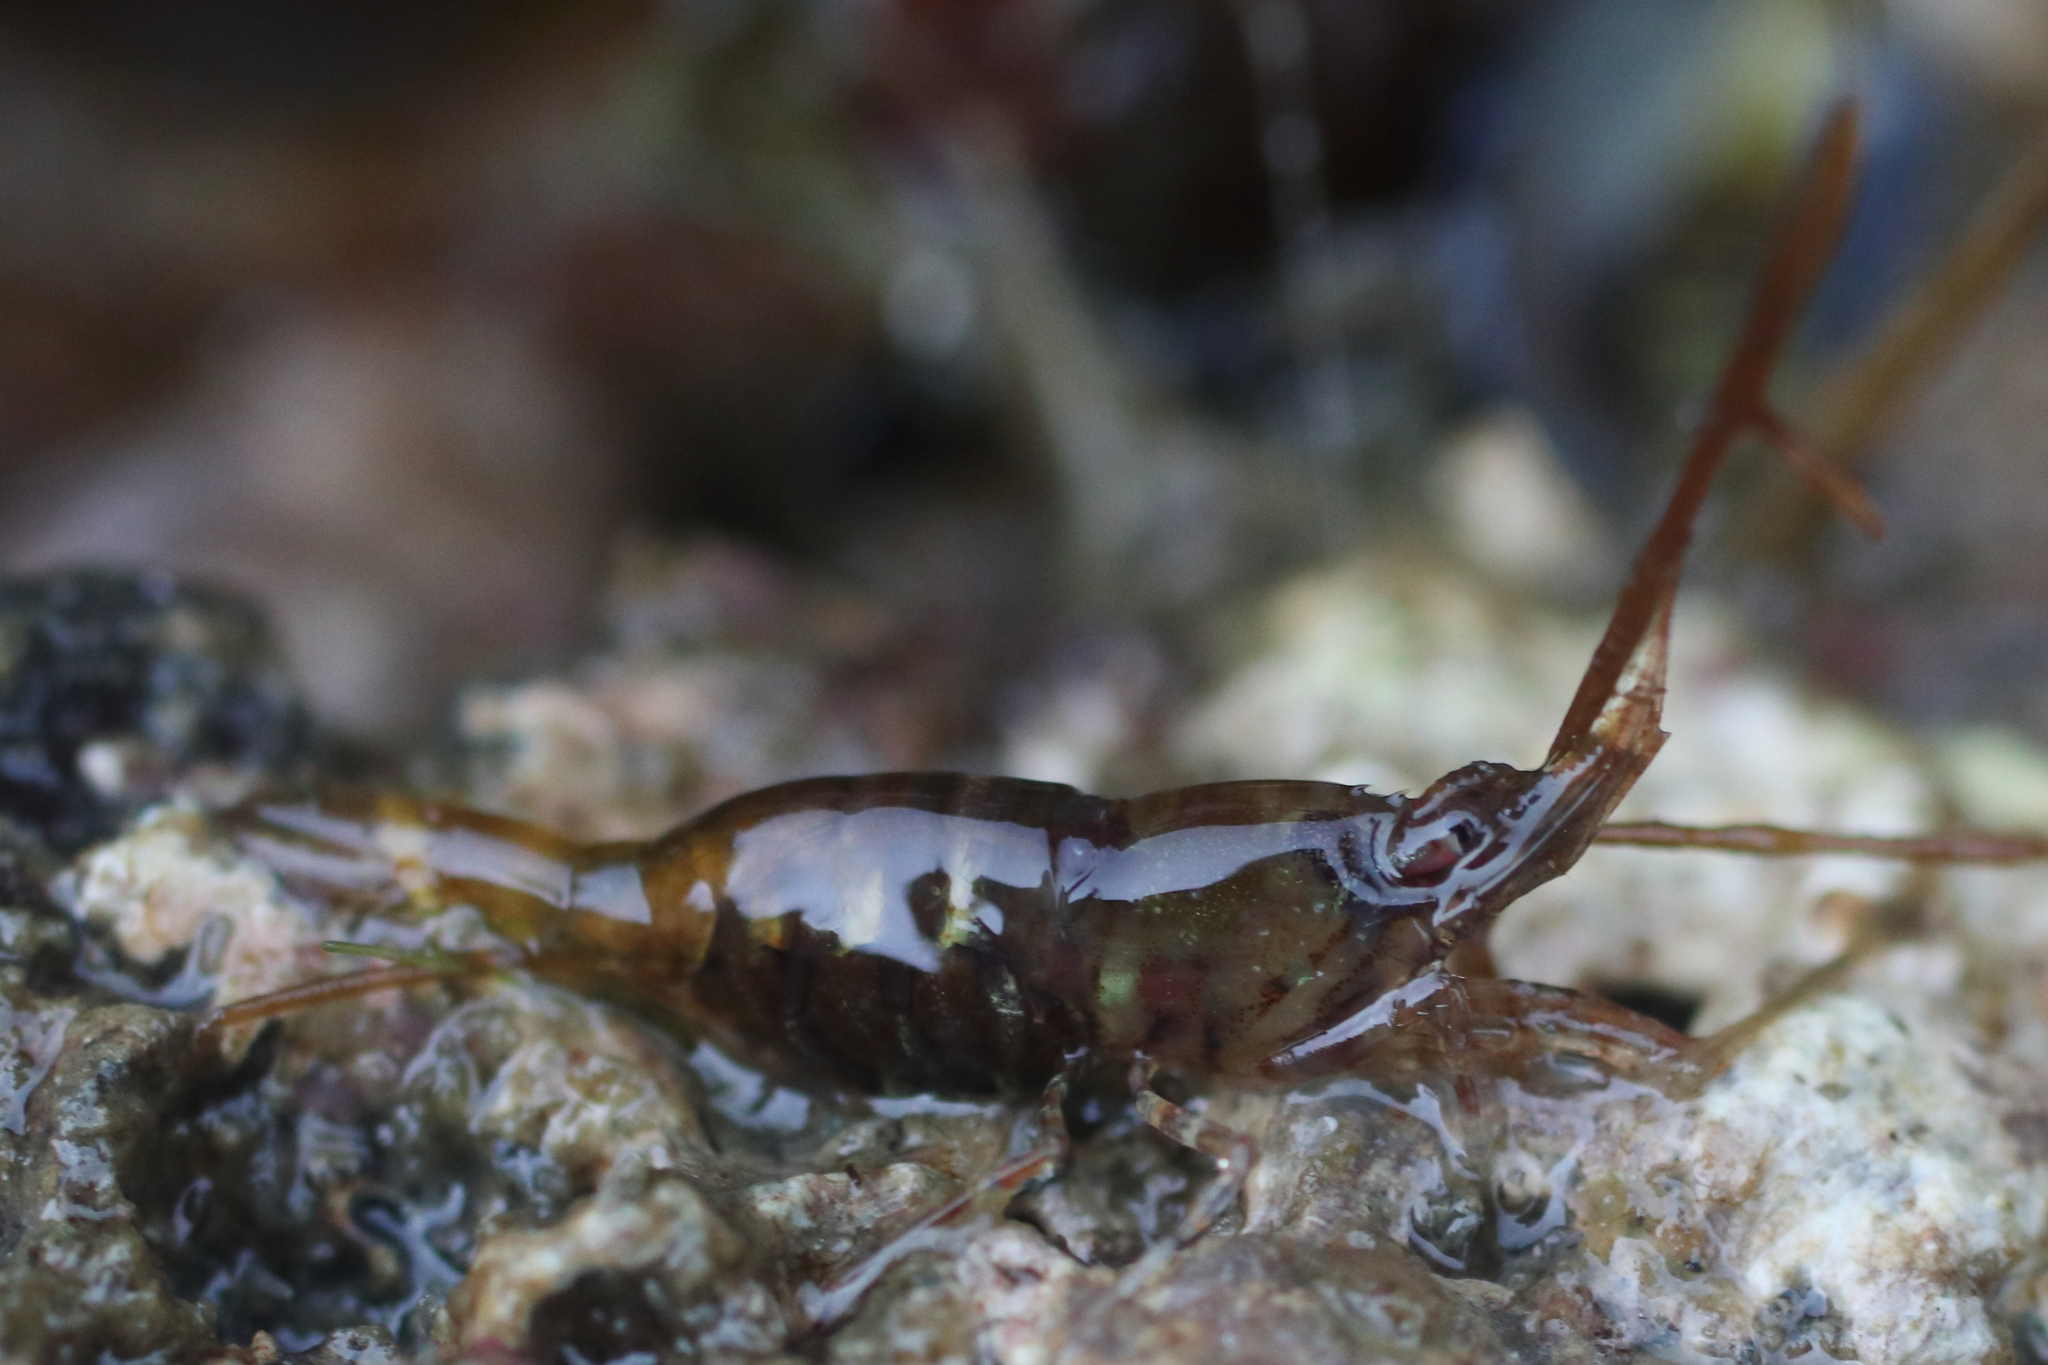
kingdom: Animalia
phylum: Arthropoda
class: Malacostraca
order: Decapoda
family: Thoridae
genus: Heptacarpus
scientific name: Heptacarpus pugettensis
